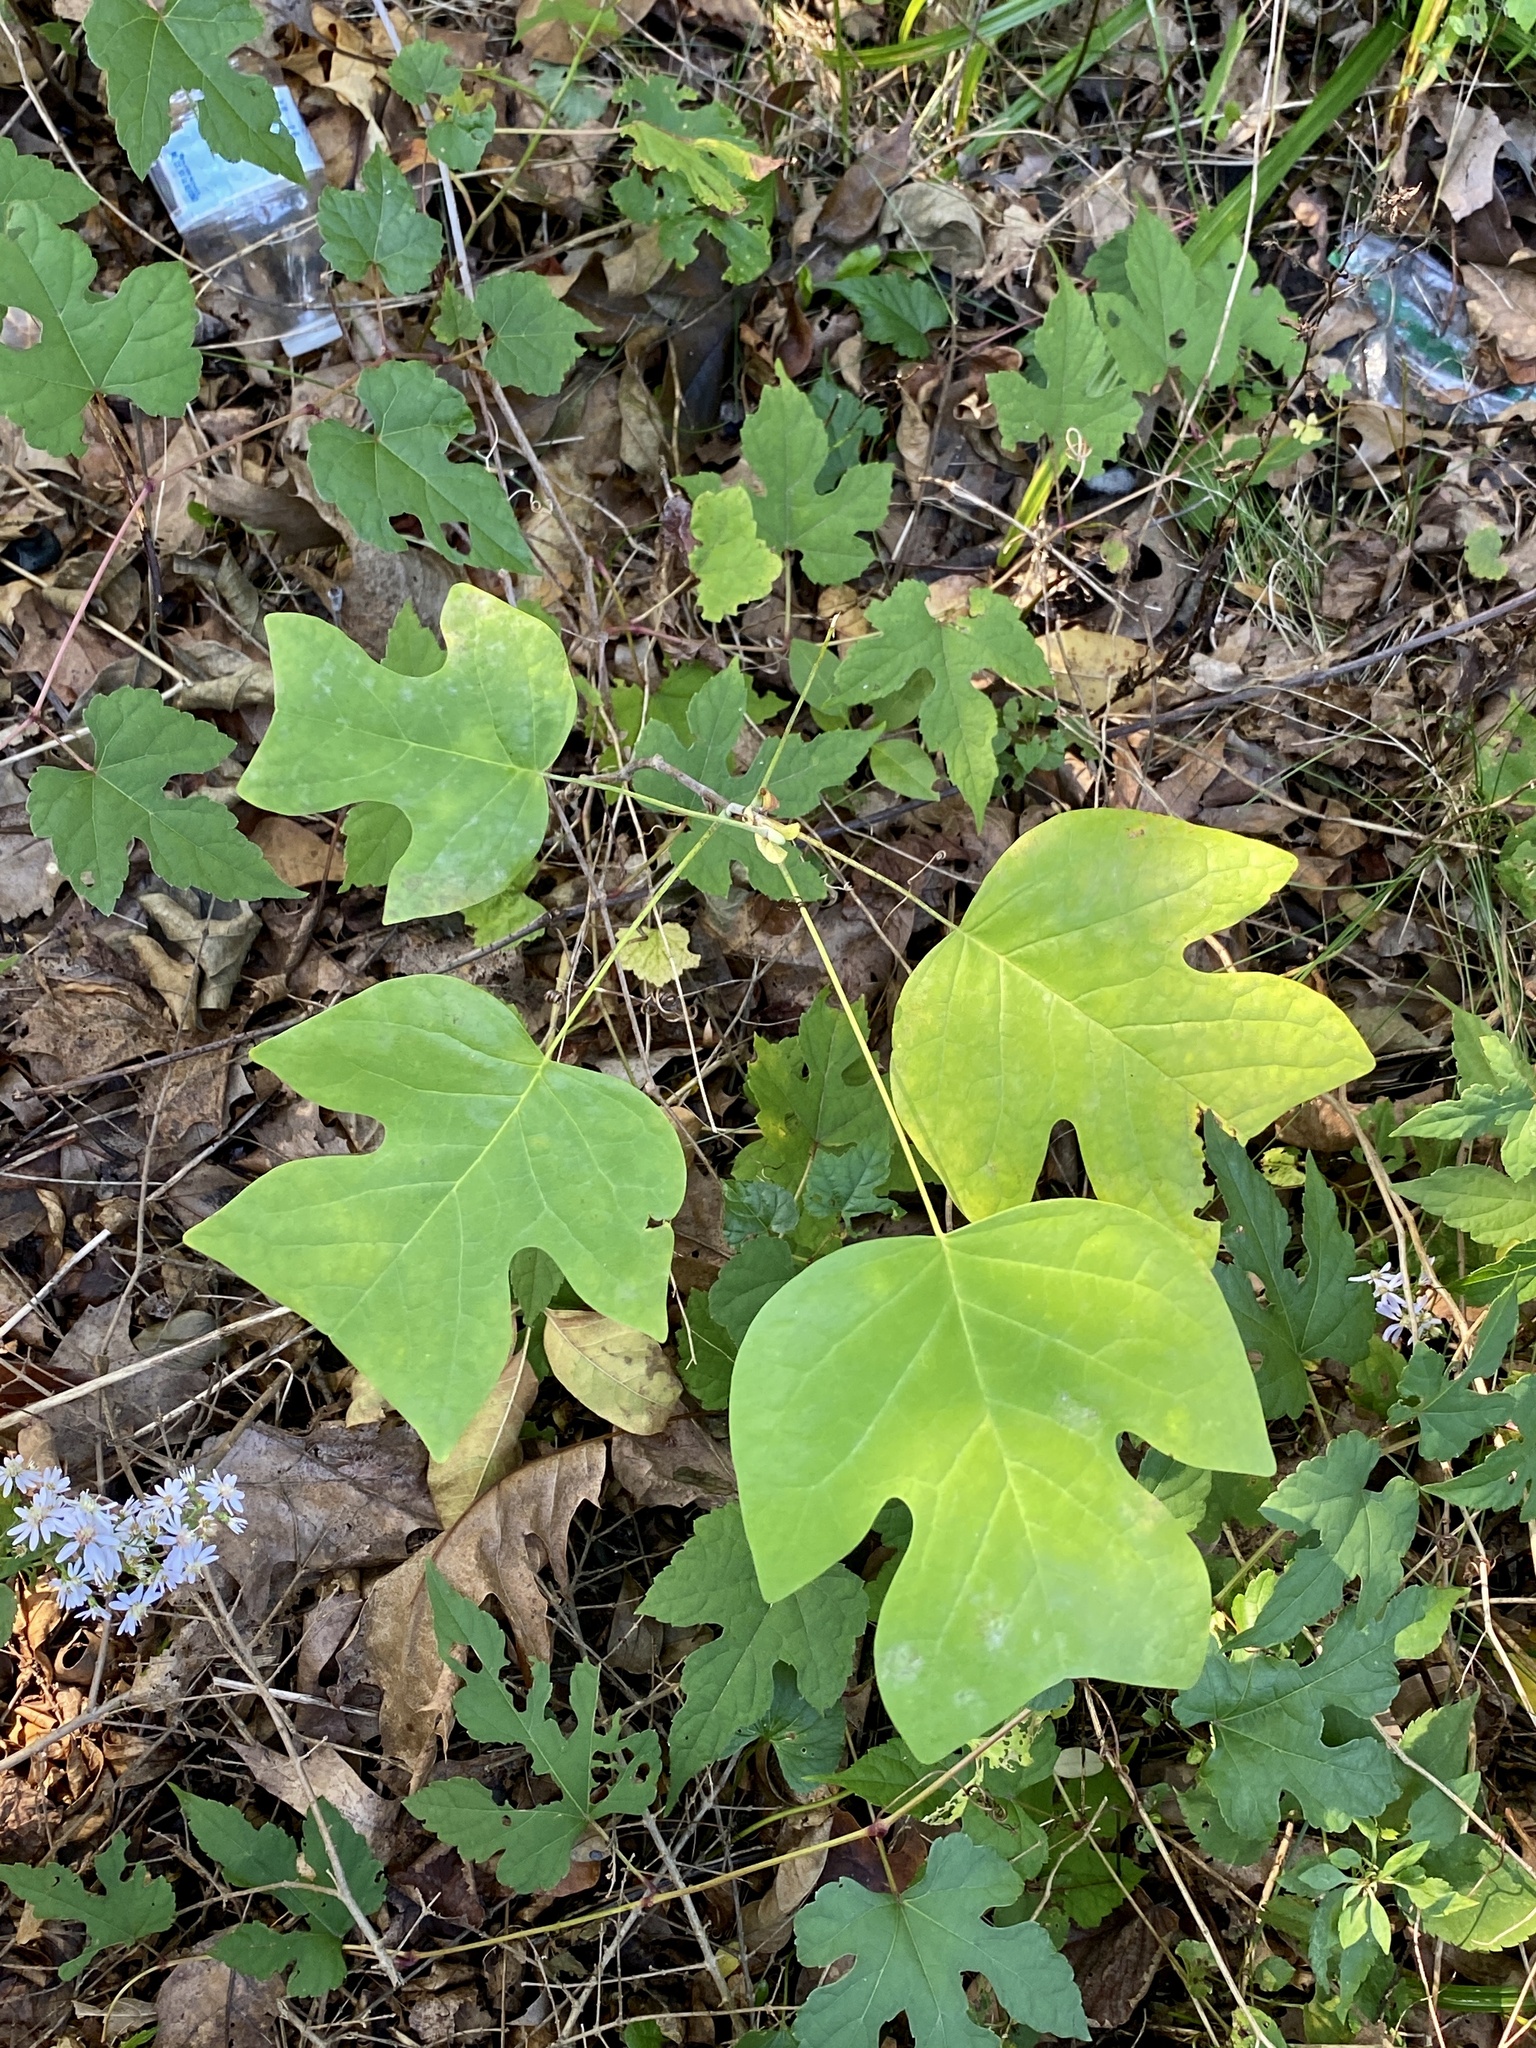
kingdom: Plantae
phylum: Tracheophyta
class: Magnoliopsida
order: Magnoliales
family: Magnoliaceae
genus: Liriodendron
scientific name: Liriodendron tulipifera
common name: Tulip tree
